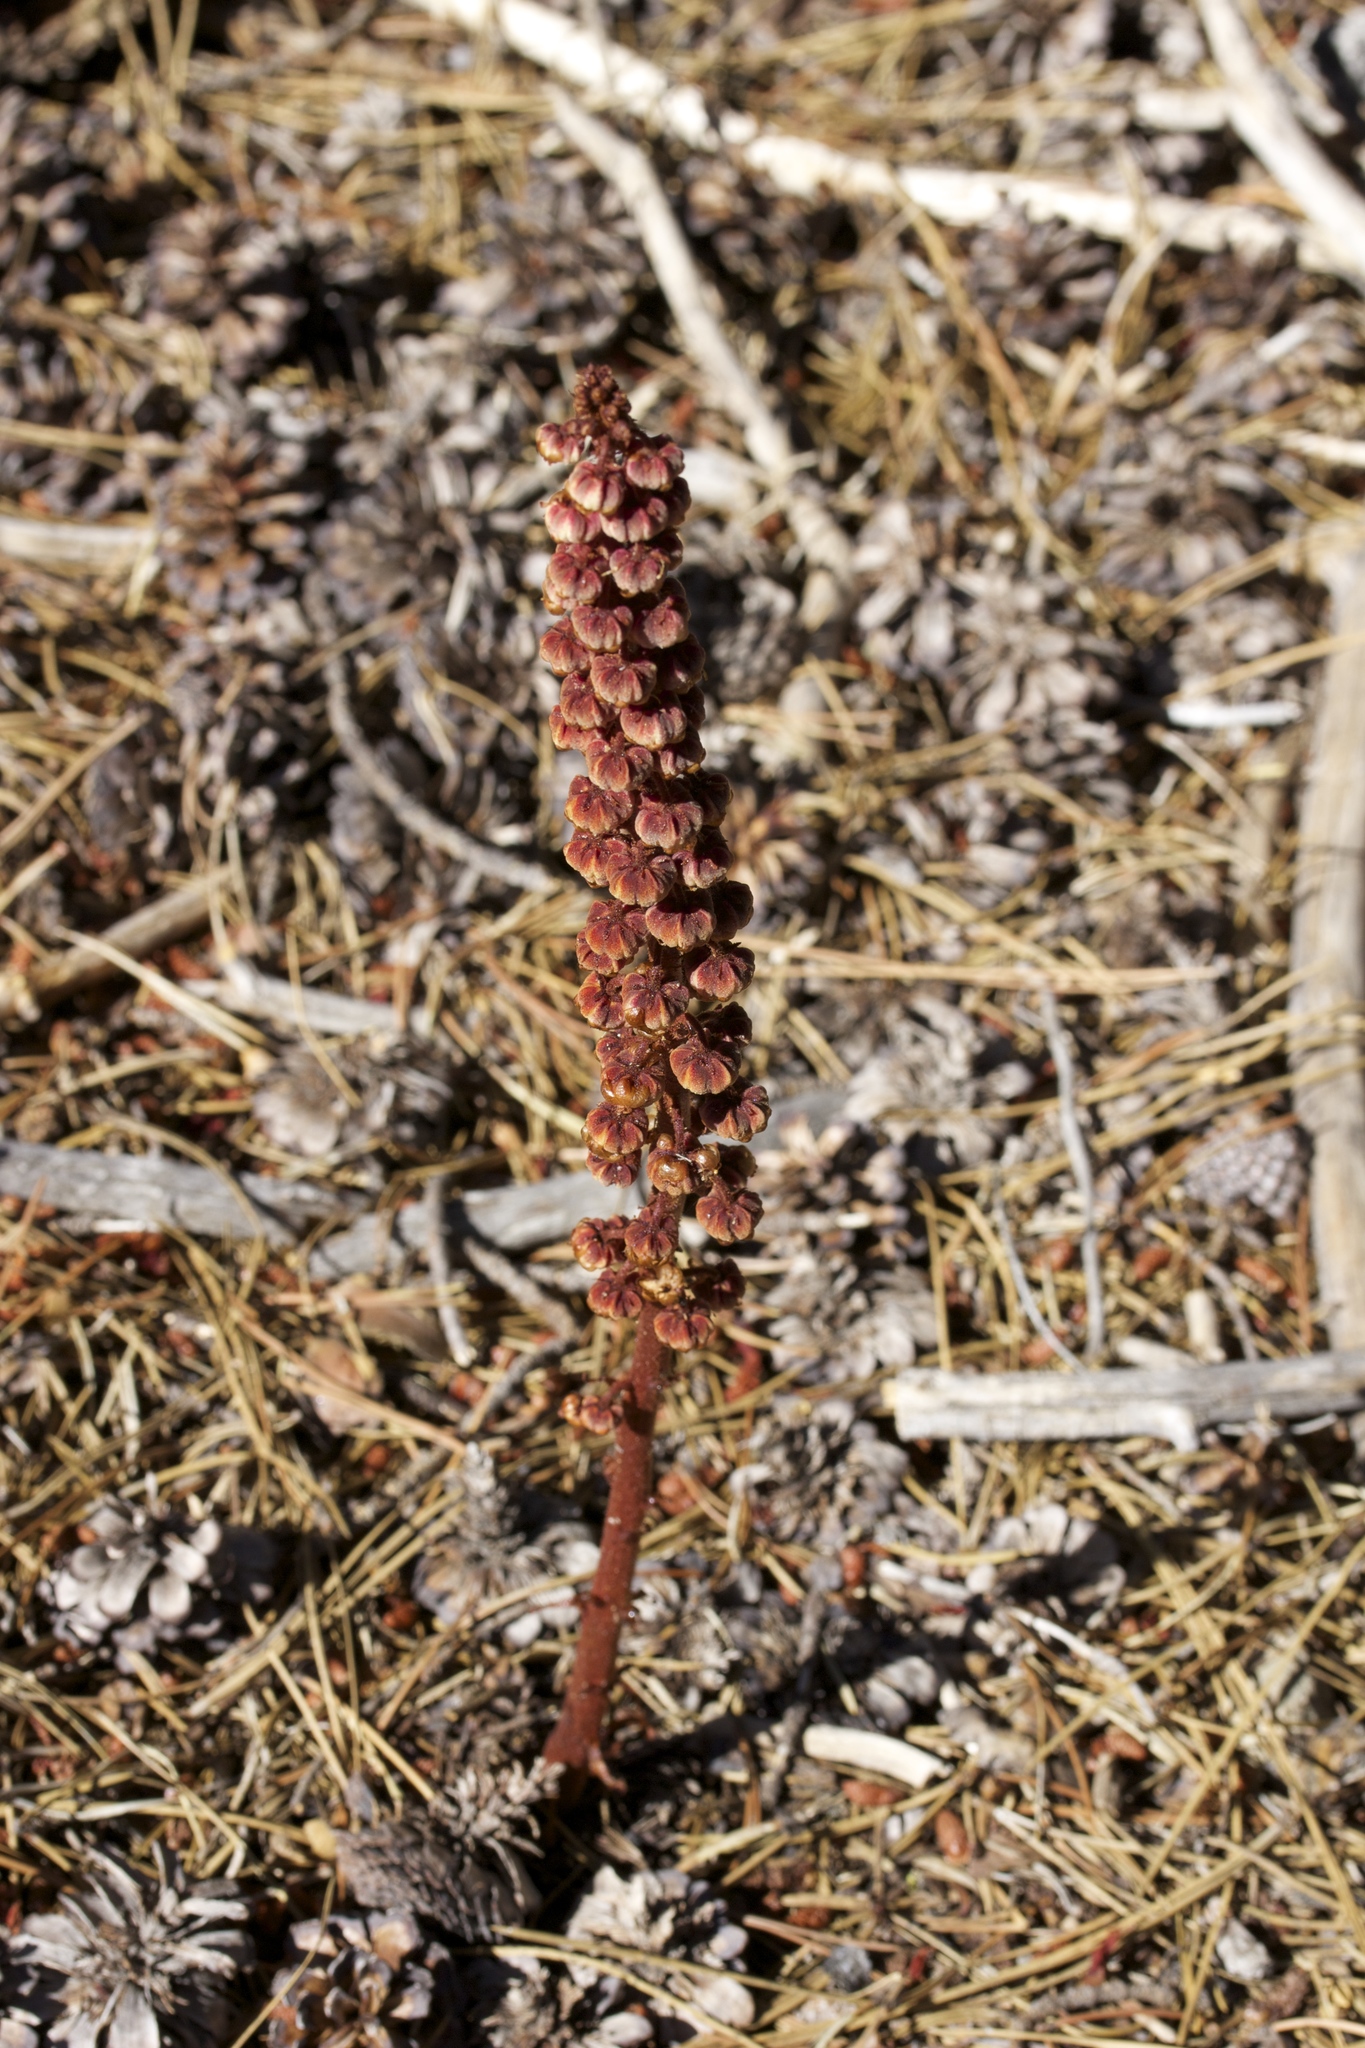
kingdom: Plantae
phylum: Tracheophyta
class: Magnoliopsida
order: Ericales
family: Ericaceae
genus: Pterospora
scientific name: Pterospora andromedea
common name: Giant bird's-nest
